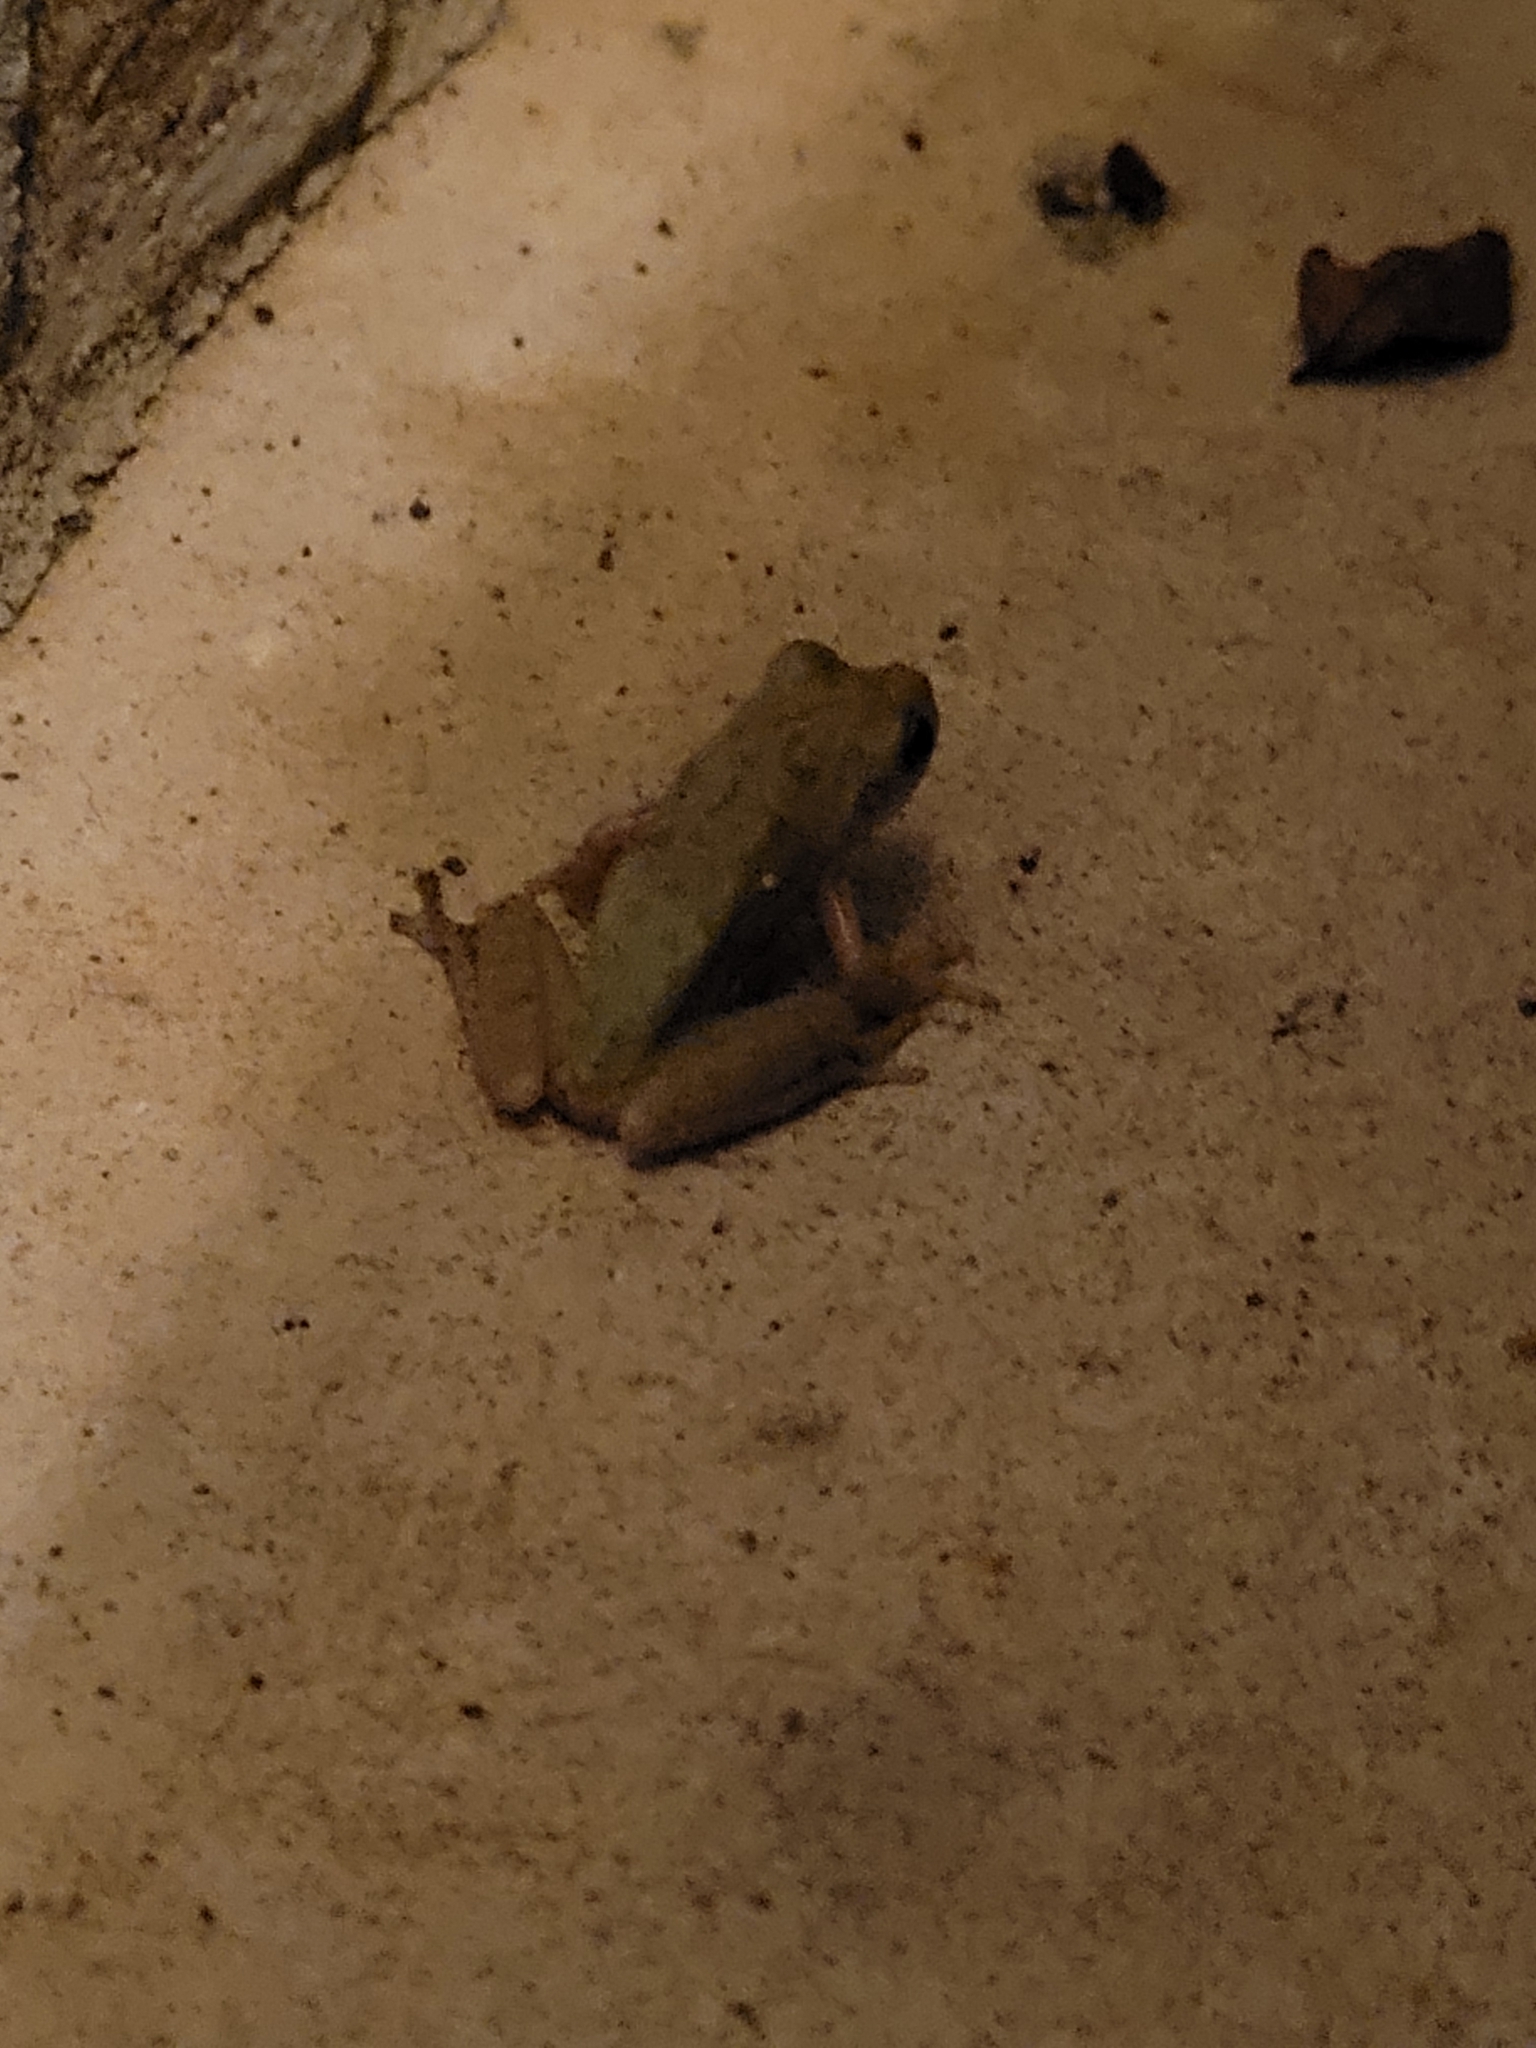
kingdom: Animalia
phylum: Chordata
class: Amphibia
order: Anura
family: Hylidae
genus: Dryophytes
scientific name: Dryophytes squirellus
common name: Squirrel treefrog
